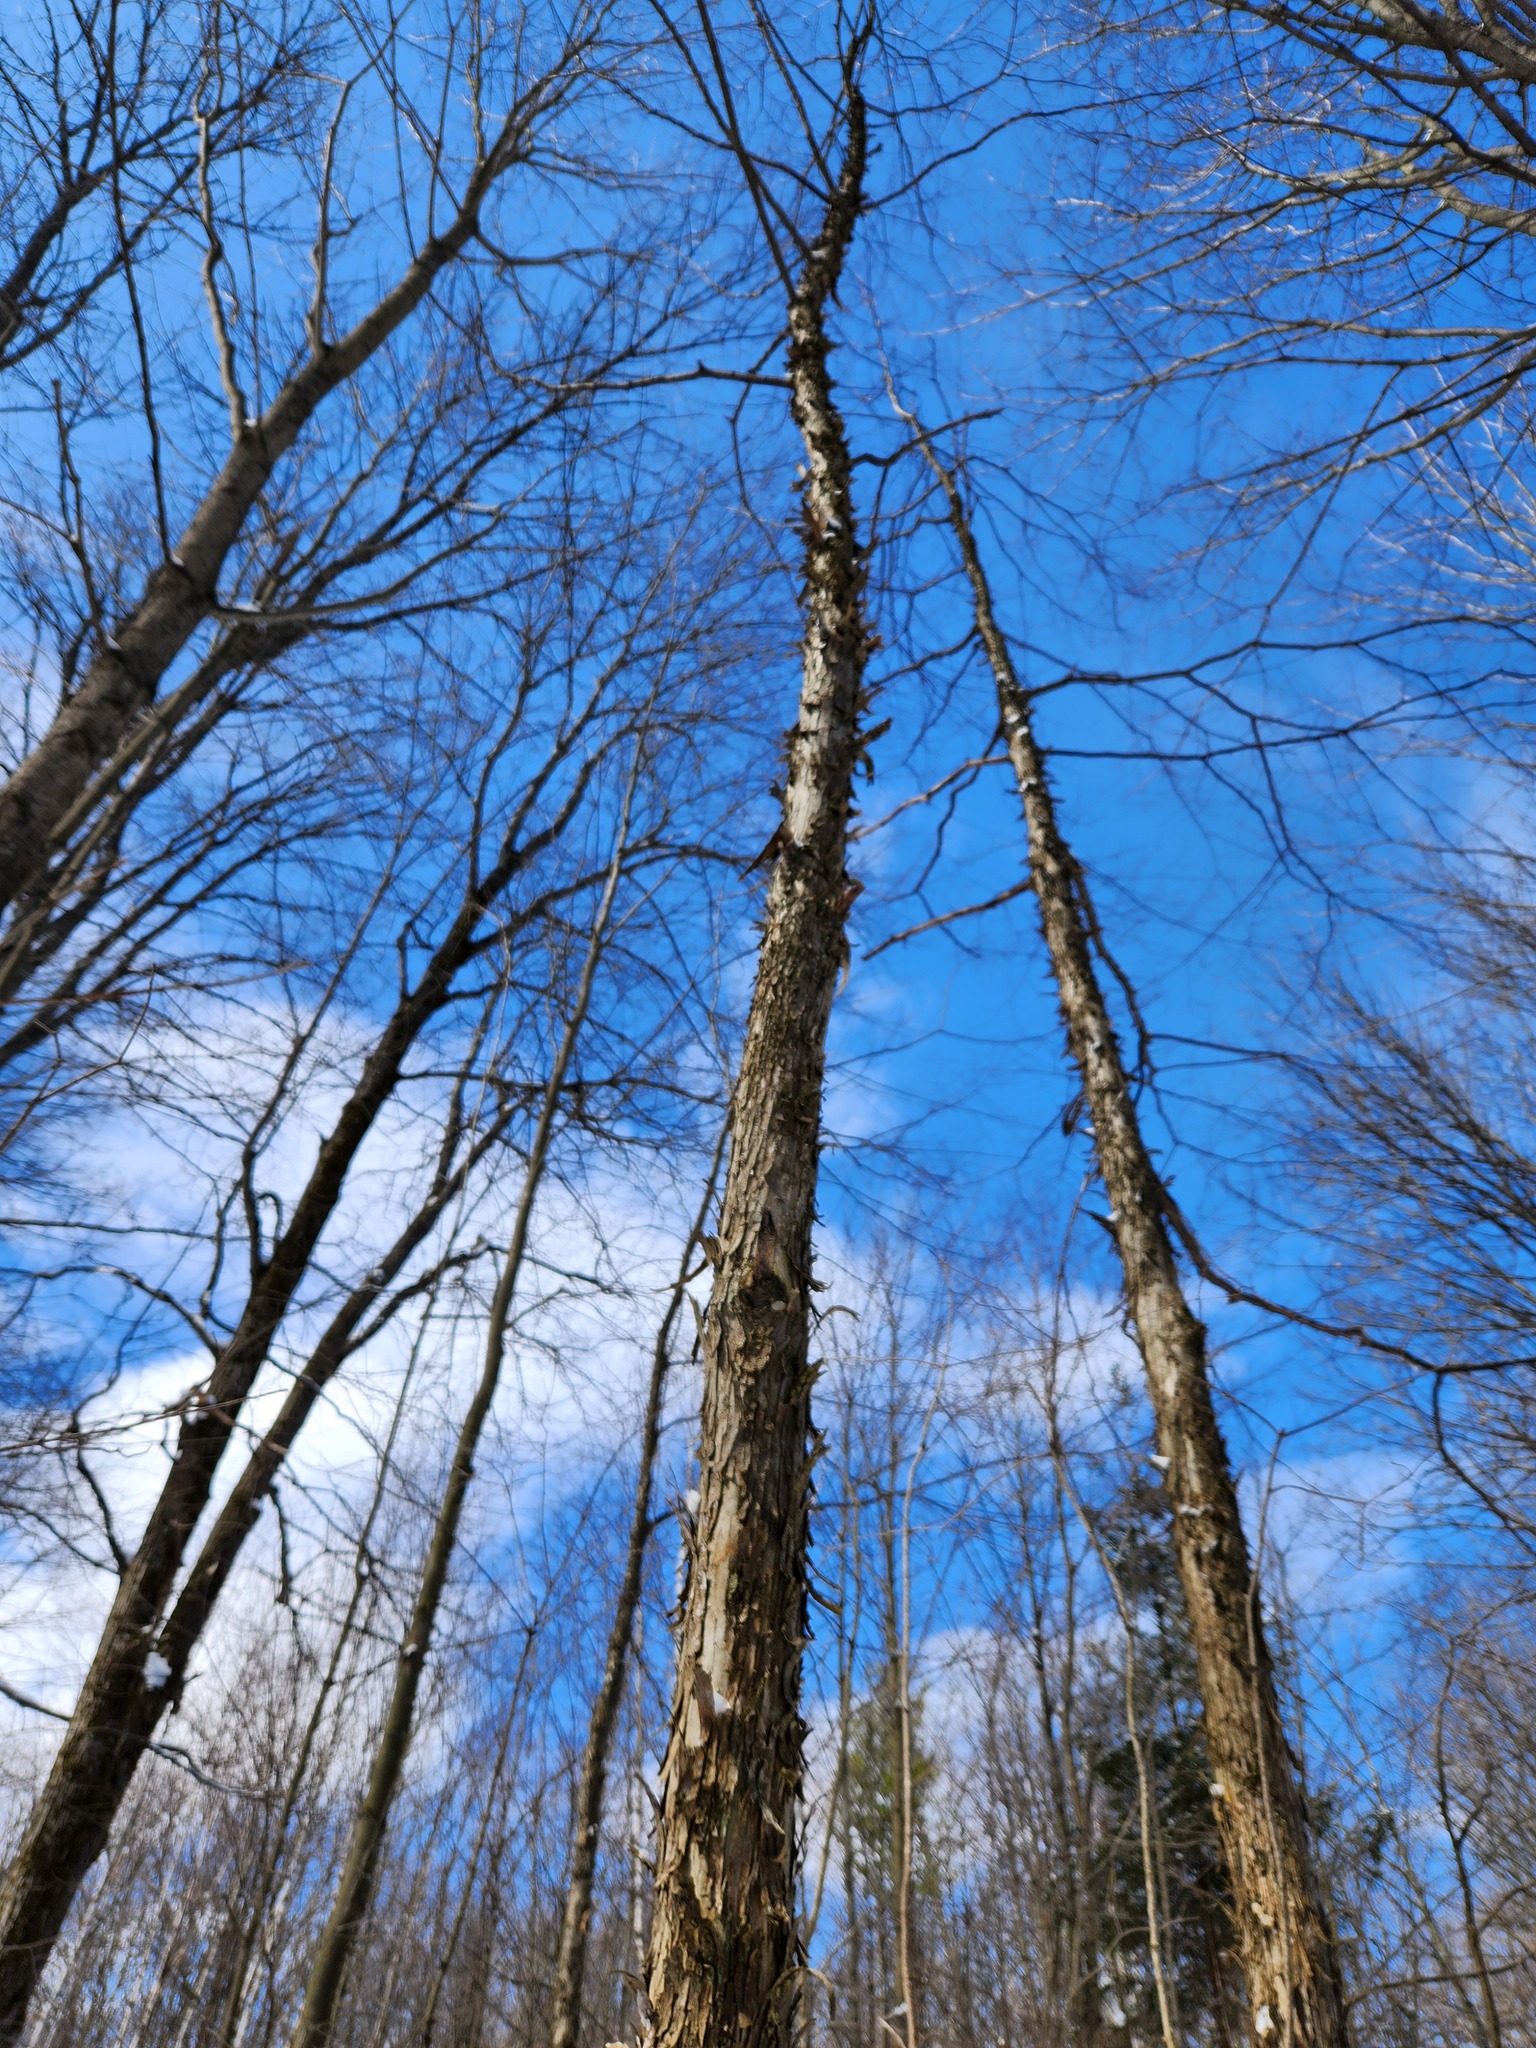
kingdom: Plantae
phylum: Tracheophyta
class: Magnoliopsida
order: Fagales
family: Betulaceae
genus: Ostrya
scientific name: Ostrya virginiana
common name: Ironwood
